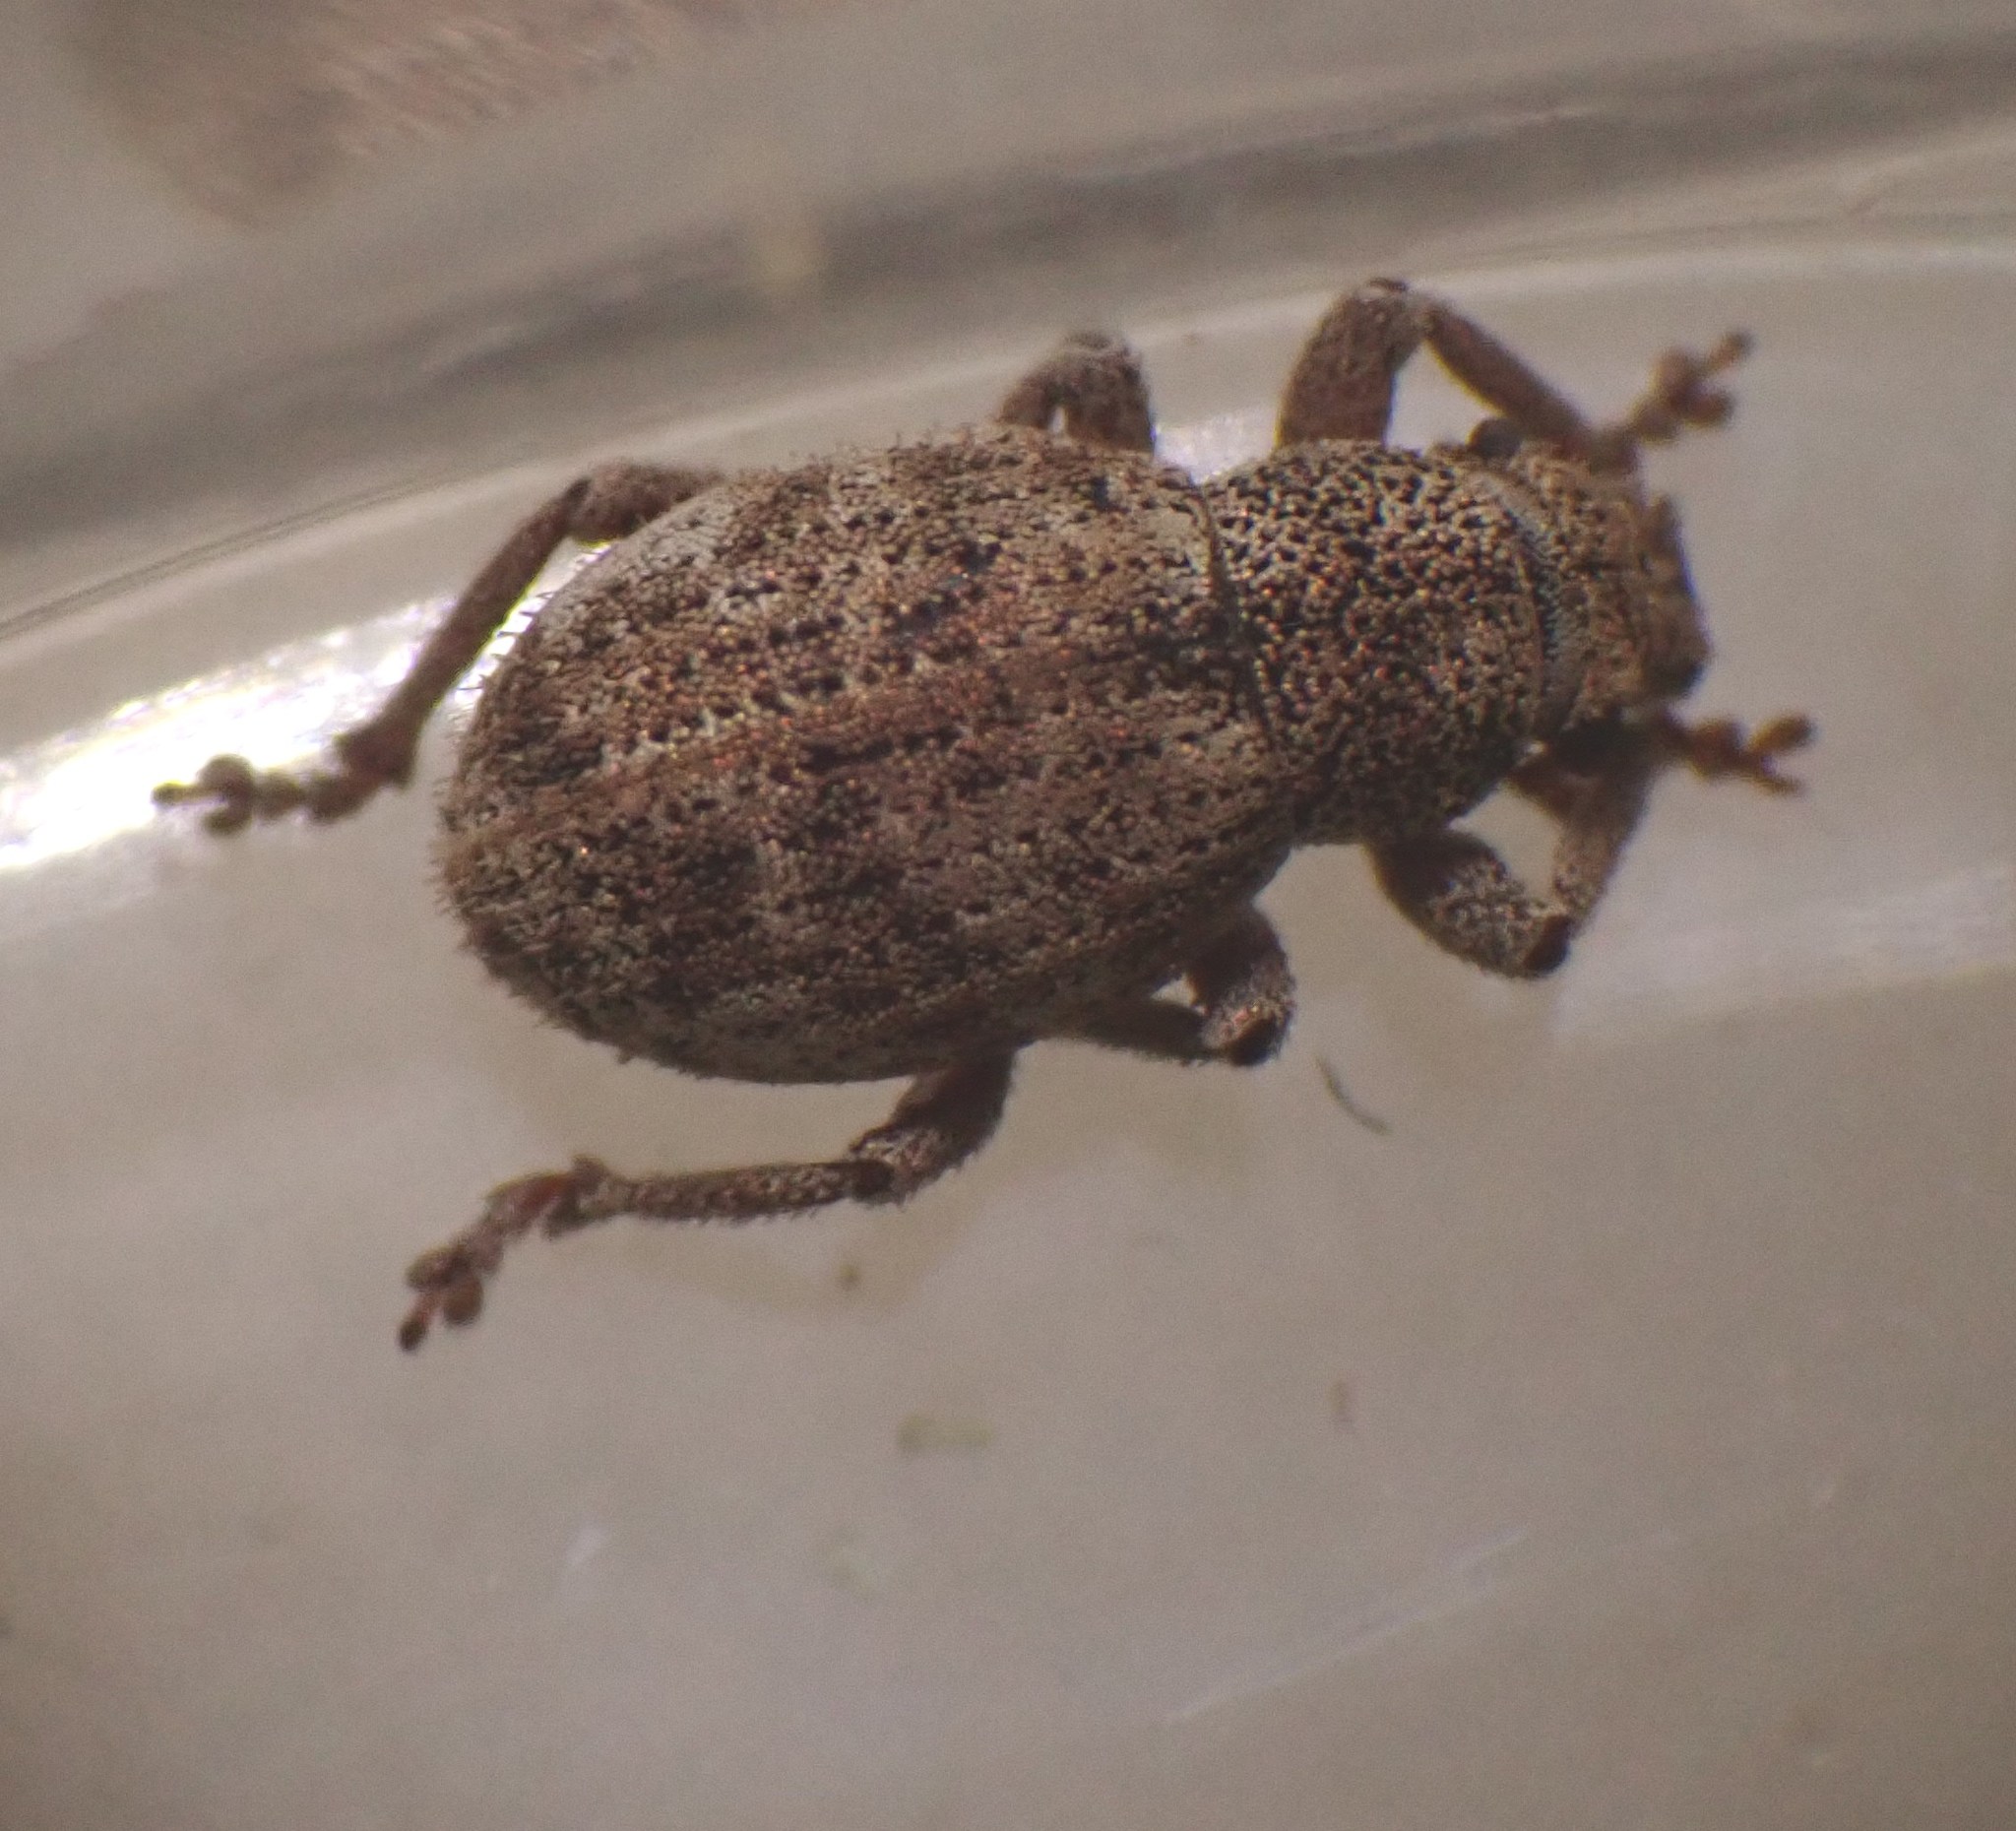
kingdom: Animalia
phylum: Arthropoda
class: Insecta
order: Coleoptera
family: Curculionidae
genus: Strophosoma
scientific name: Strophosoma capitatum
